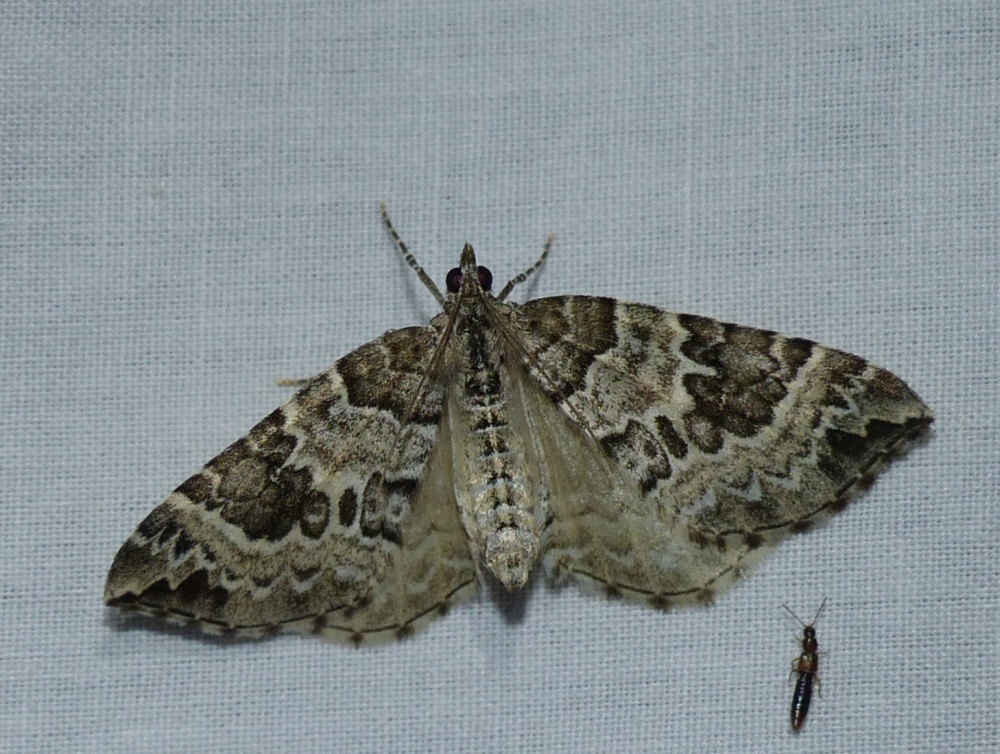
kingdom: Animalia
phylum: Arthropoda
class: Insecta
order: Lepidoptera
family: Geometridae
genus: Eulithis
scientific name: Eulithis explanata
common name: White eulithis
